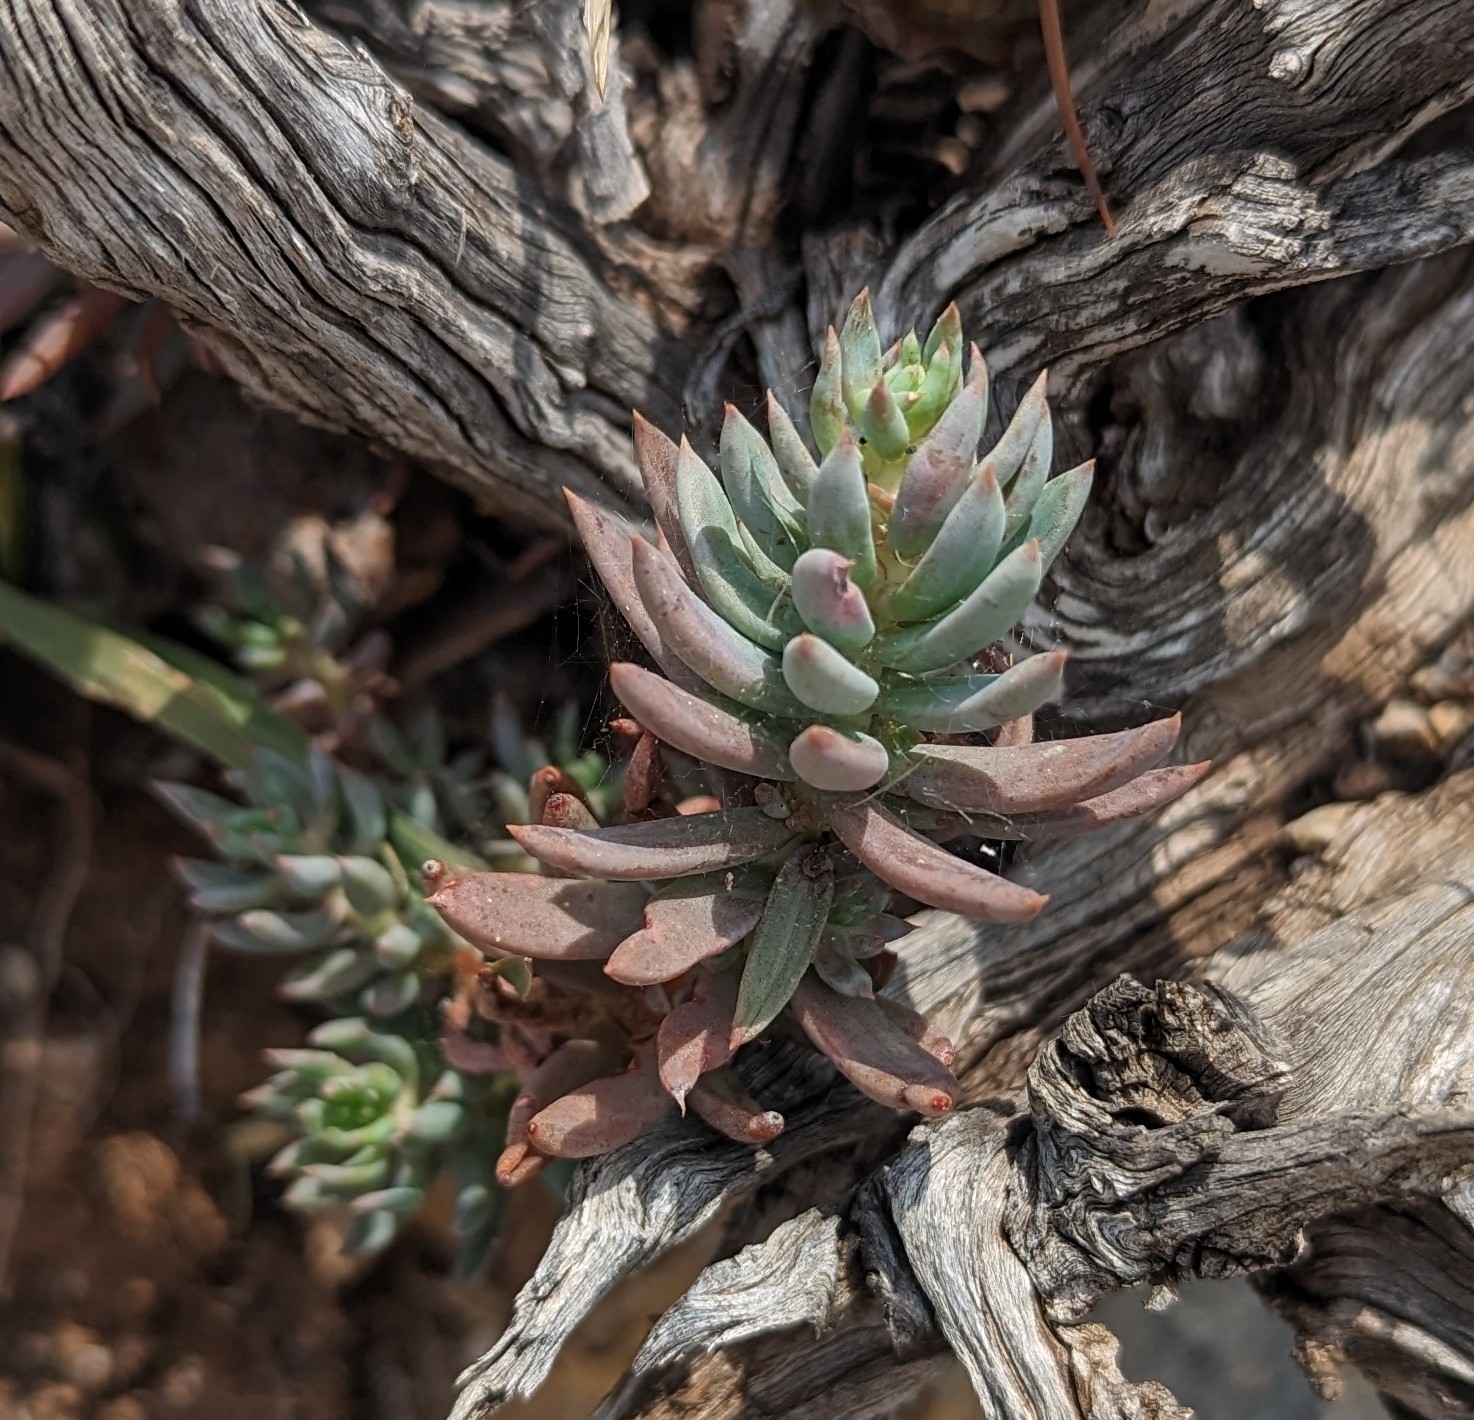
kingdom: Plantae
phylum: Tracheophyta
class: Magnoliopsida
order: Saxifragales
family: Crassulaceae
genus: Petrosedum
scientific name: Petrosedum sediforme
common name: Pale stonecrop
